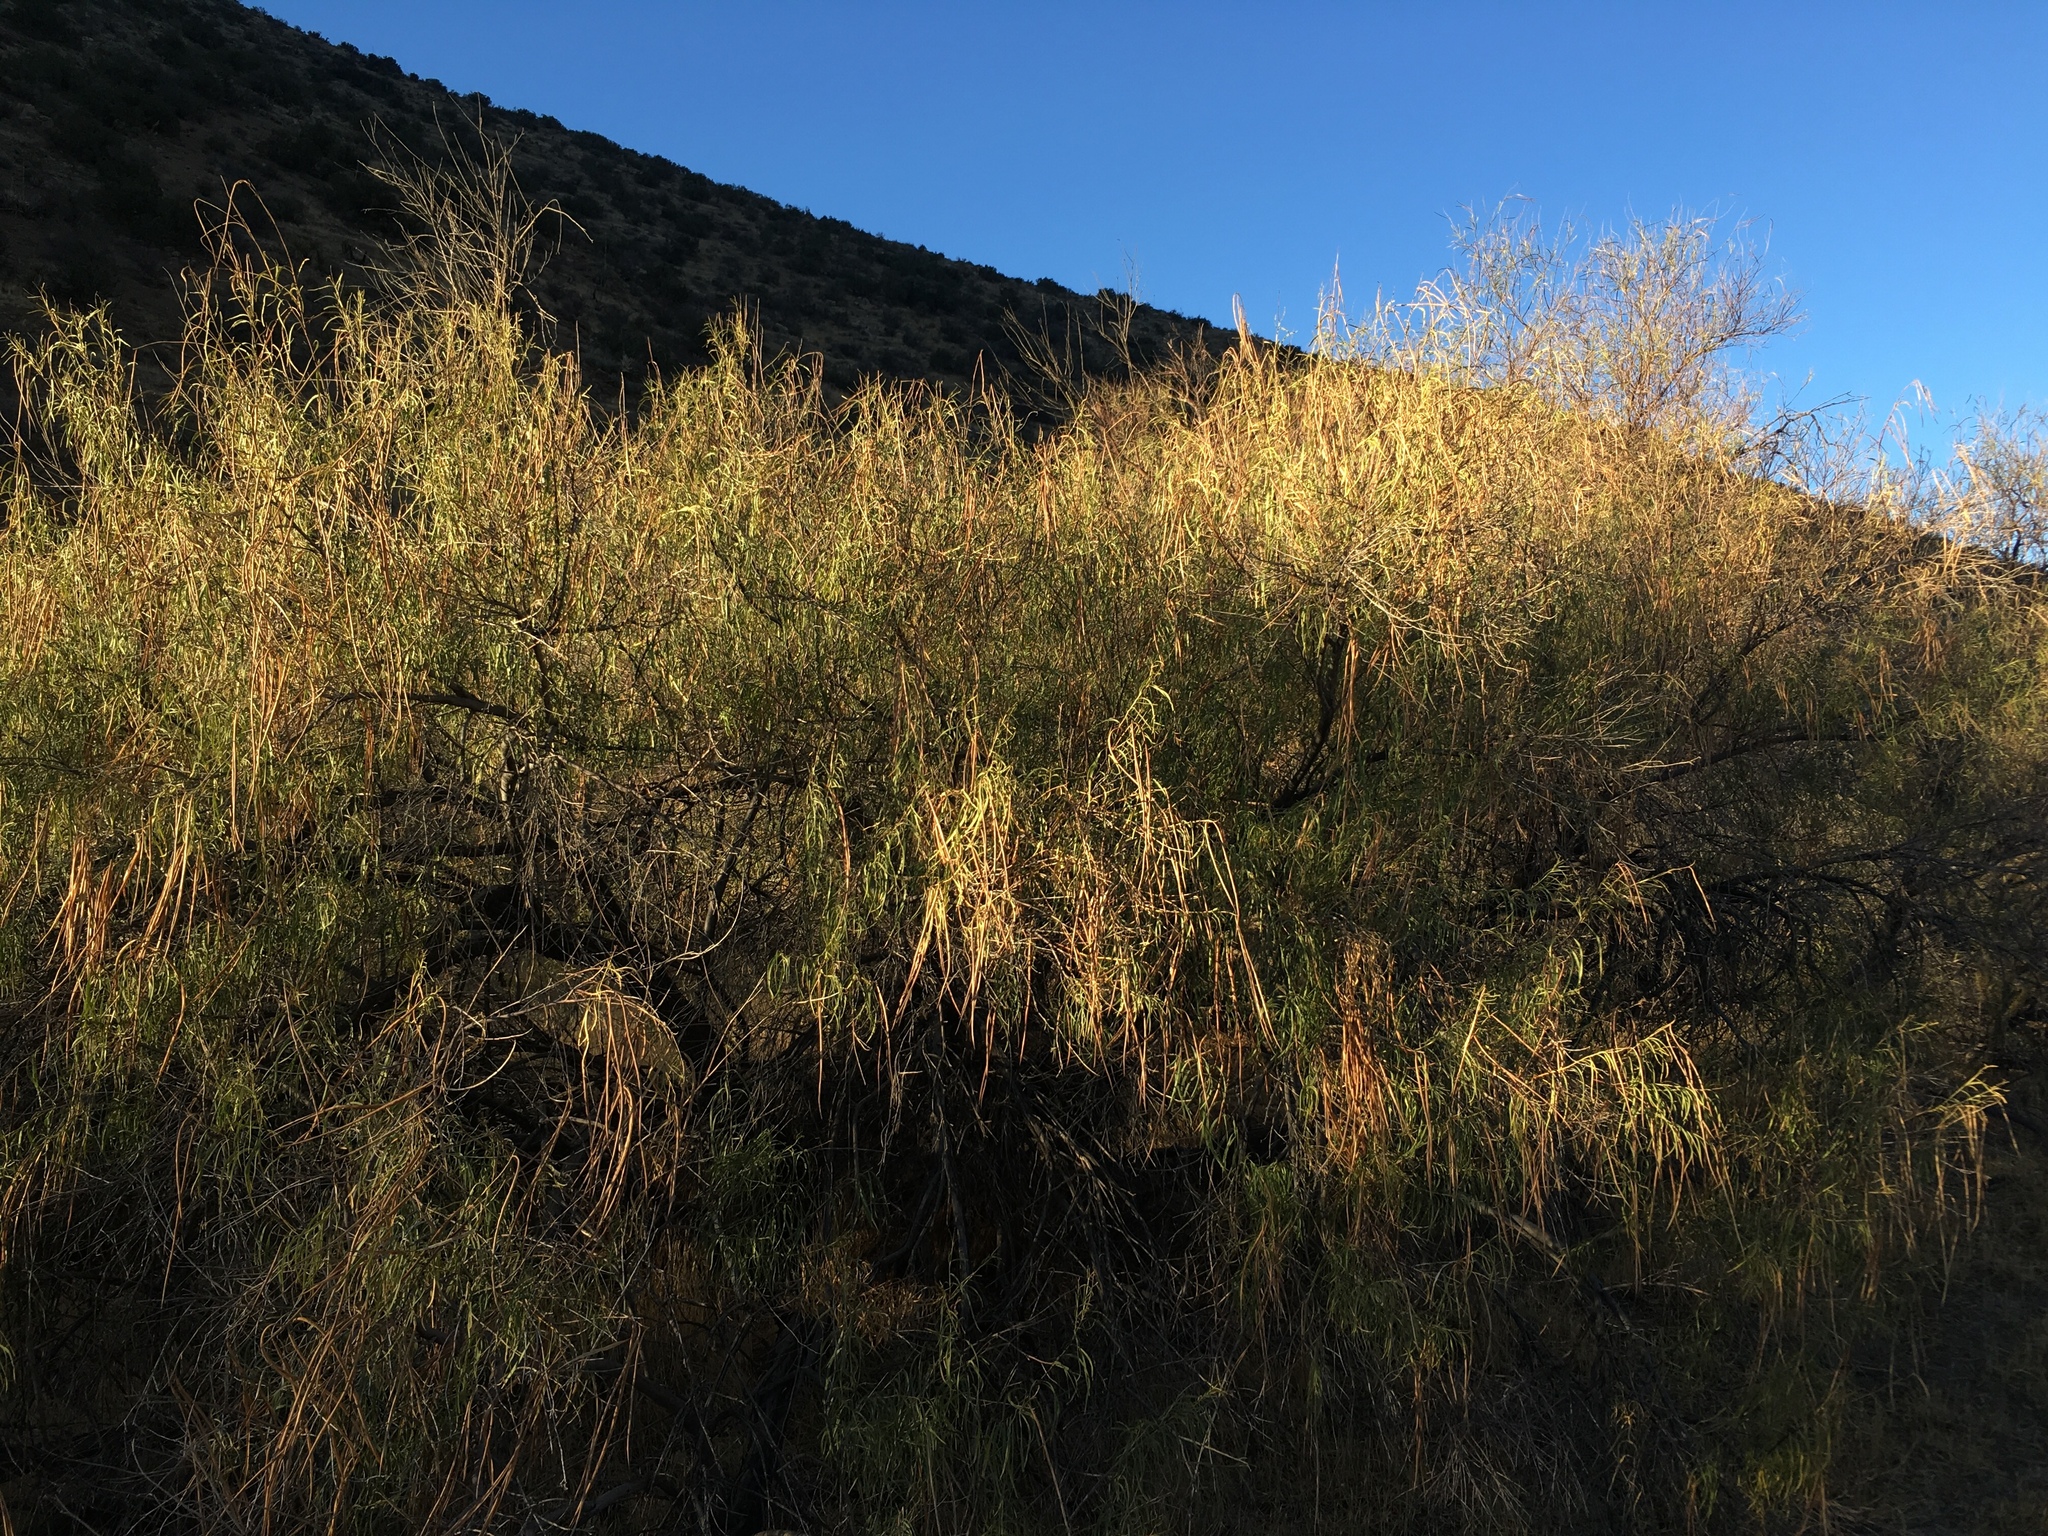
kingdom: Plantae
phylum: Tracheophyta
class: Magnoliopsida
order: Lamiales
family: Bignoniaceae
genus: Chilopsis
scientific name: Chilopsis linearis
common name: Desert-willow
